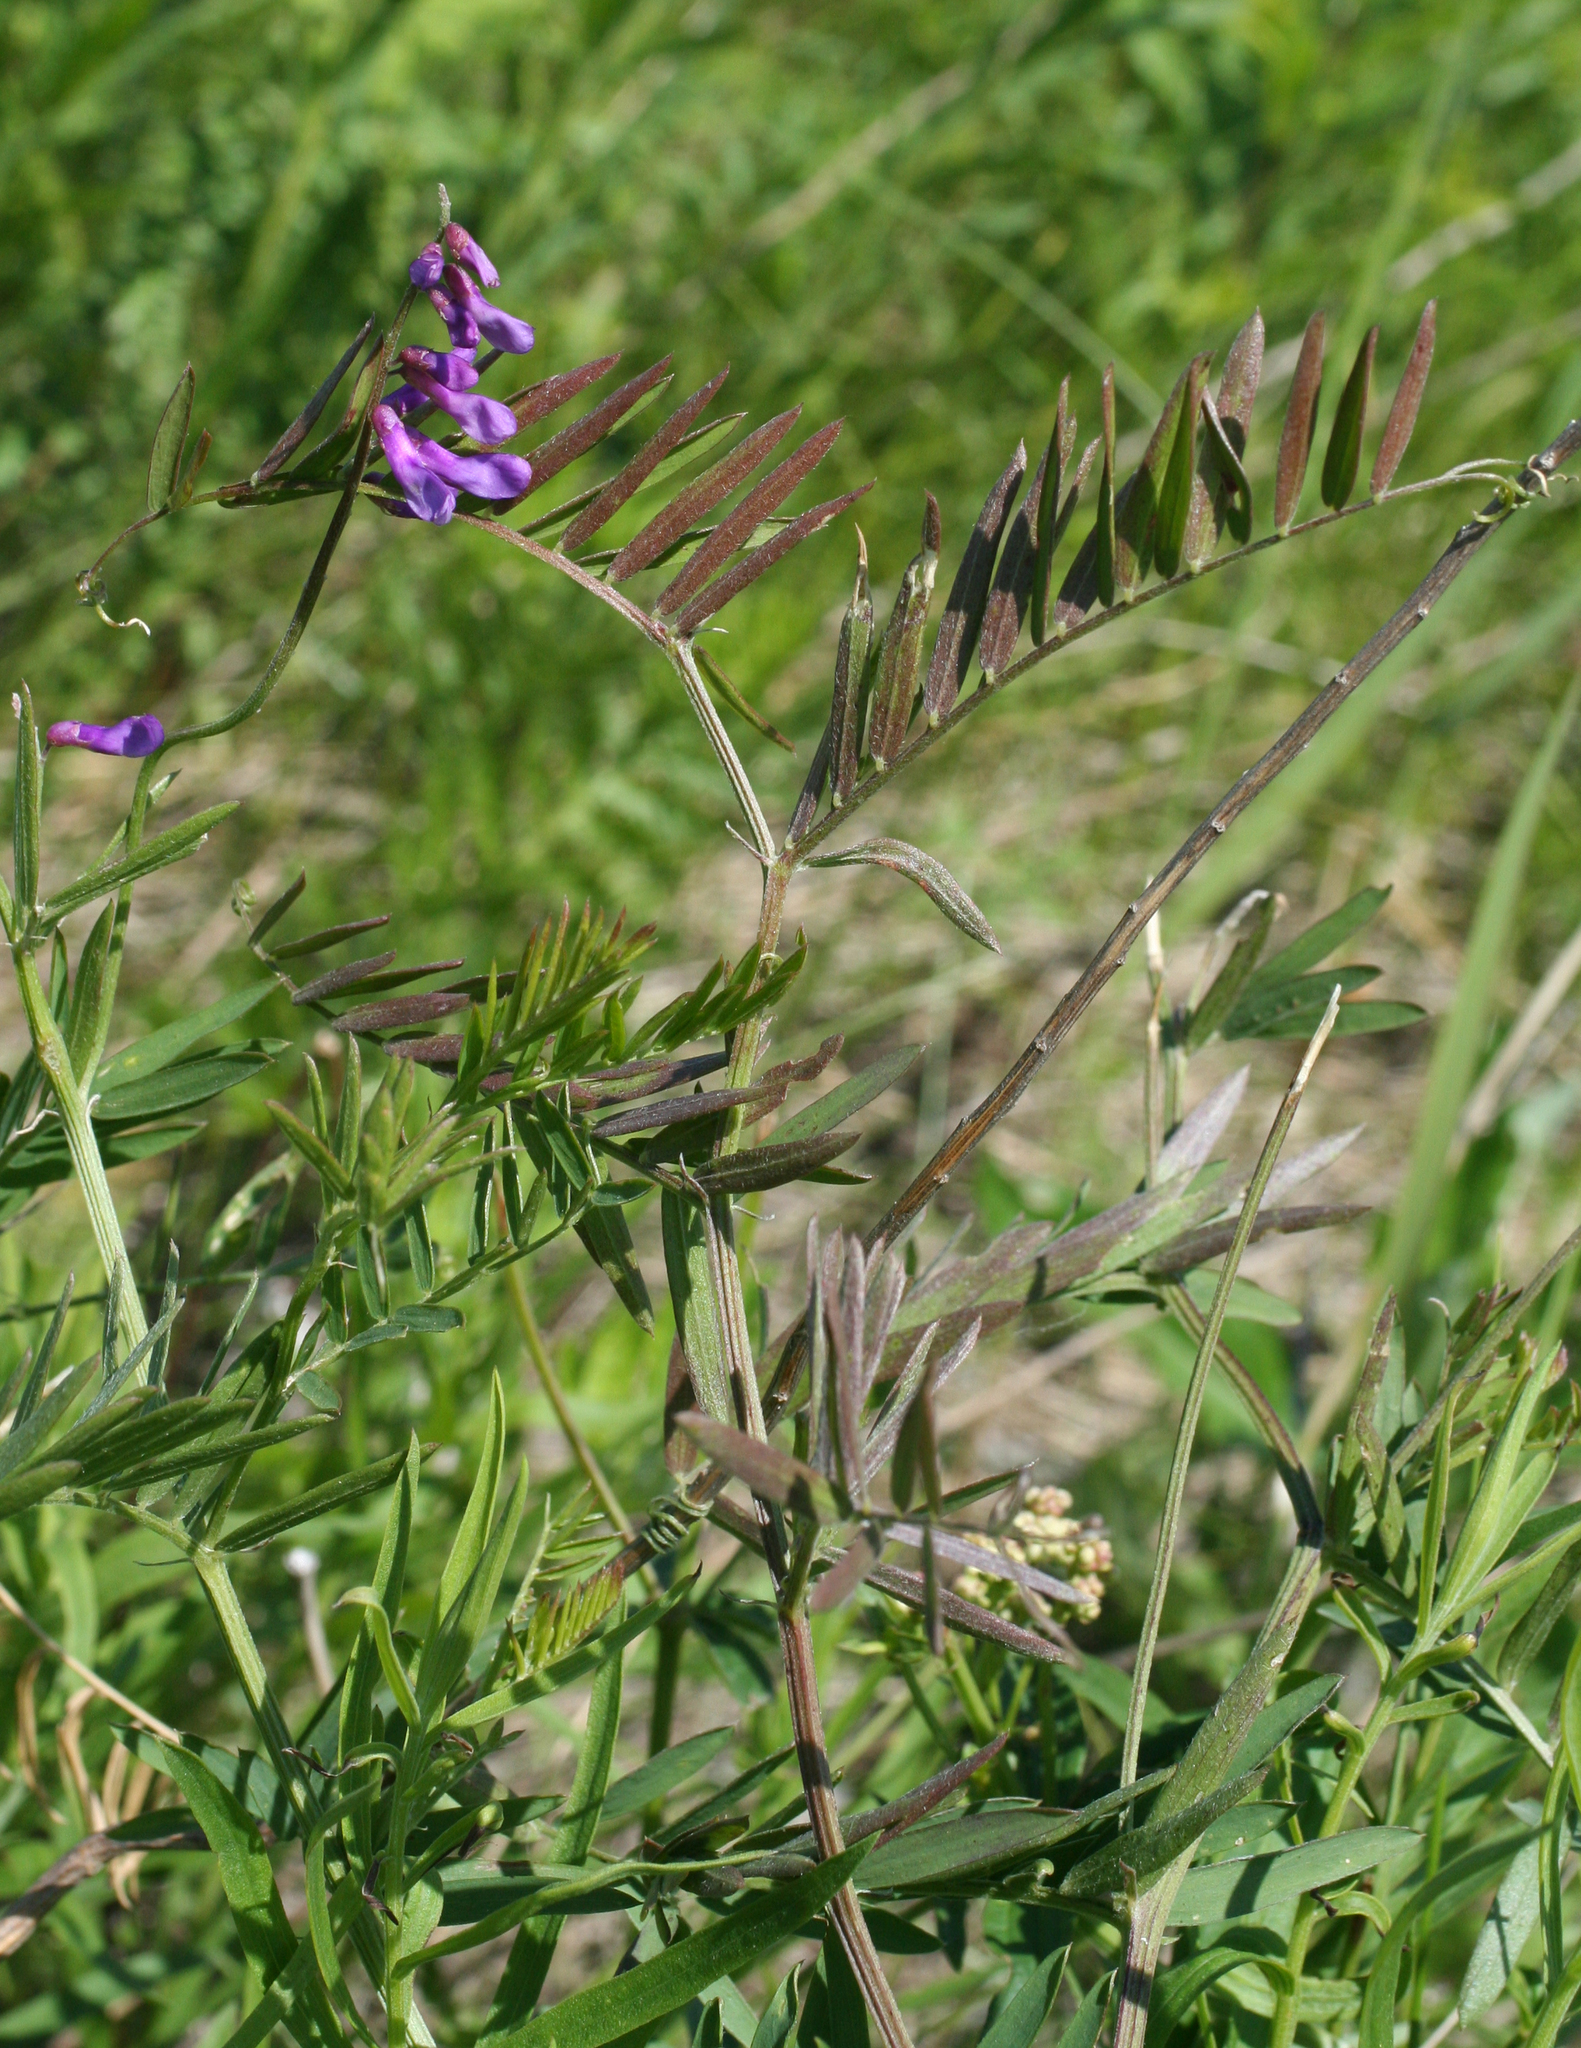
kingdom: Plantae
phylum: Tracheophyta
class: Magnoliopsida
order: Fabales
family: Fabaceae
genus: Vicia
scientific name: Vicia tenuifolia
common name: Fine-leaved vetch
